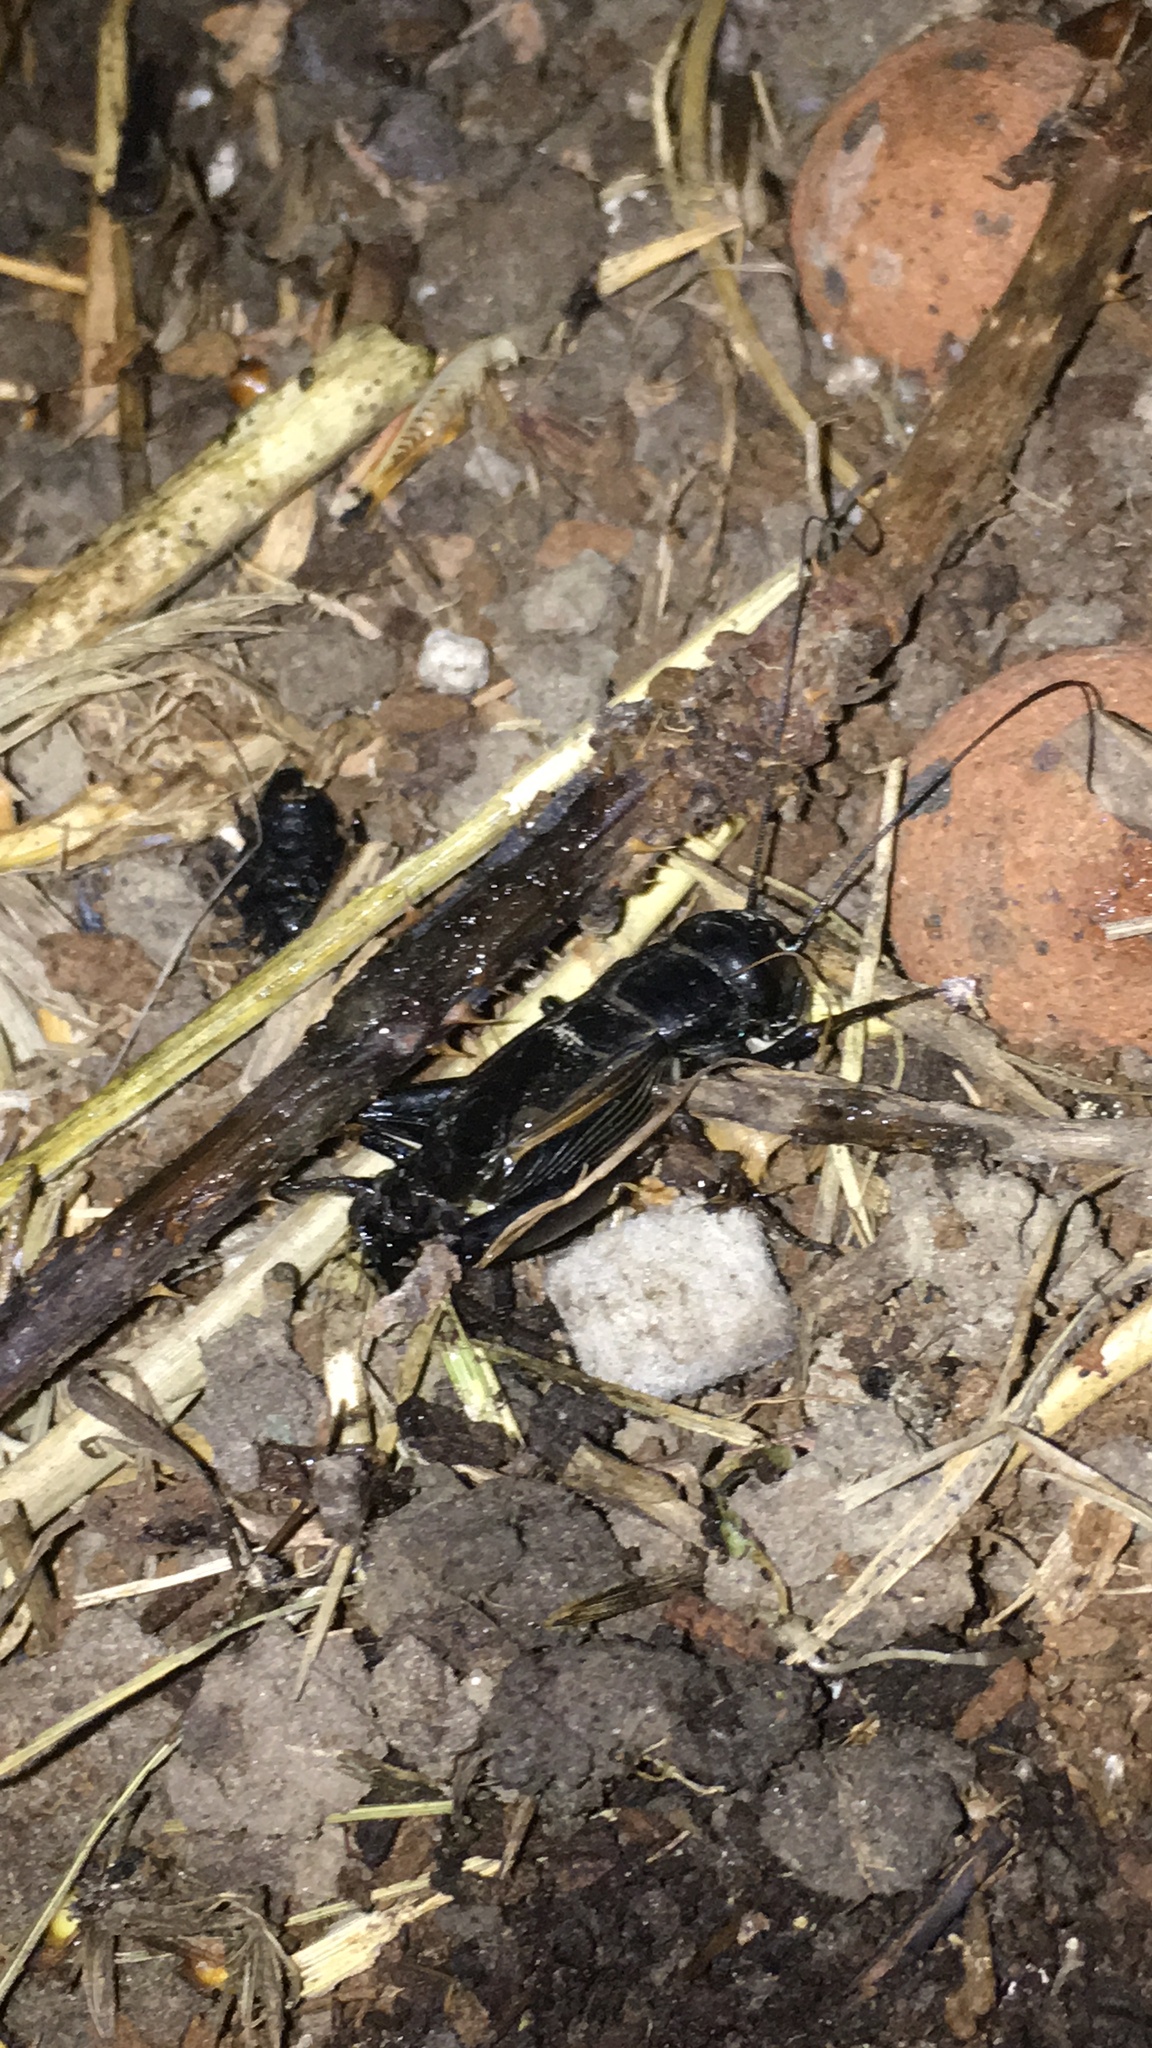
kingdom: Animalia
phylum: Arthropoda
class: Insecta
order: Orthoptera
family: Gryllidae
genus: Gryllus
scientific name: Gryllus pennsylvanicus
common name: Fall field cricket
